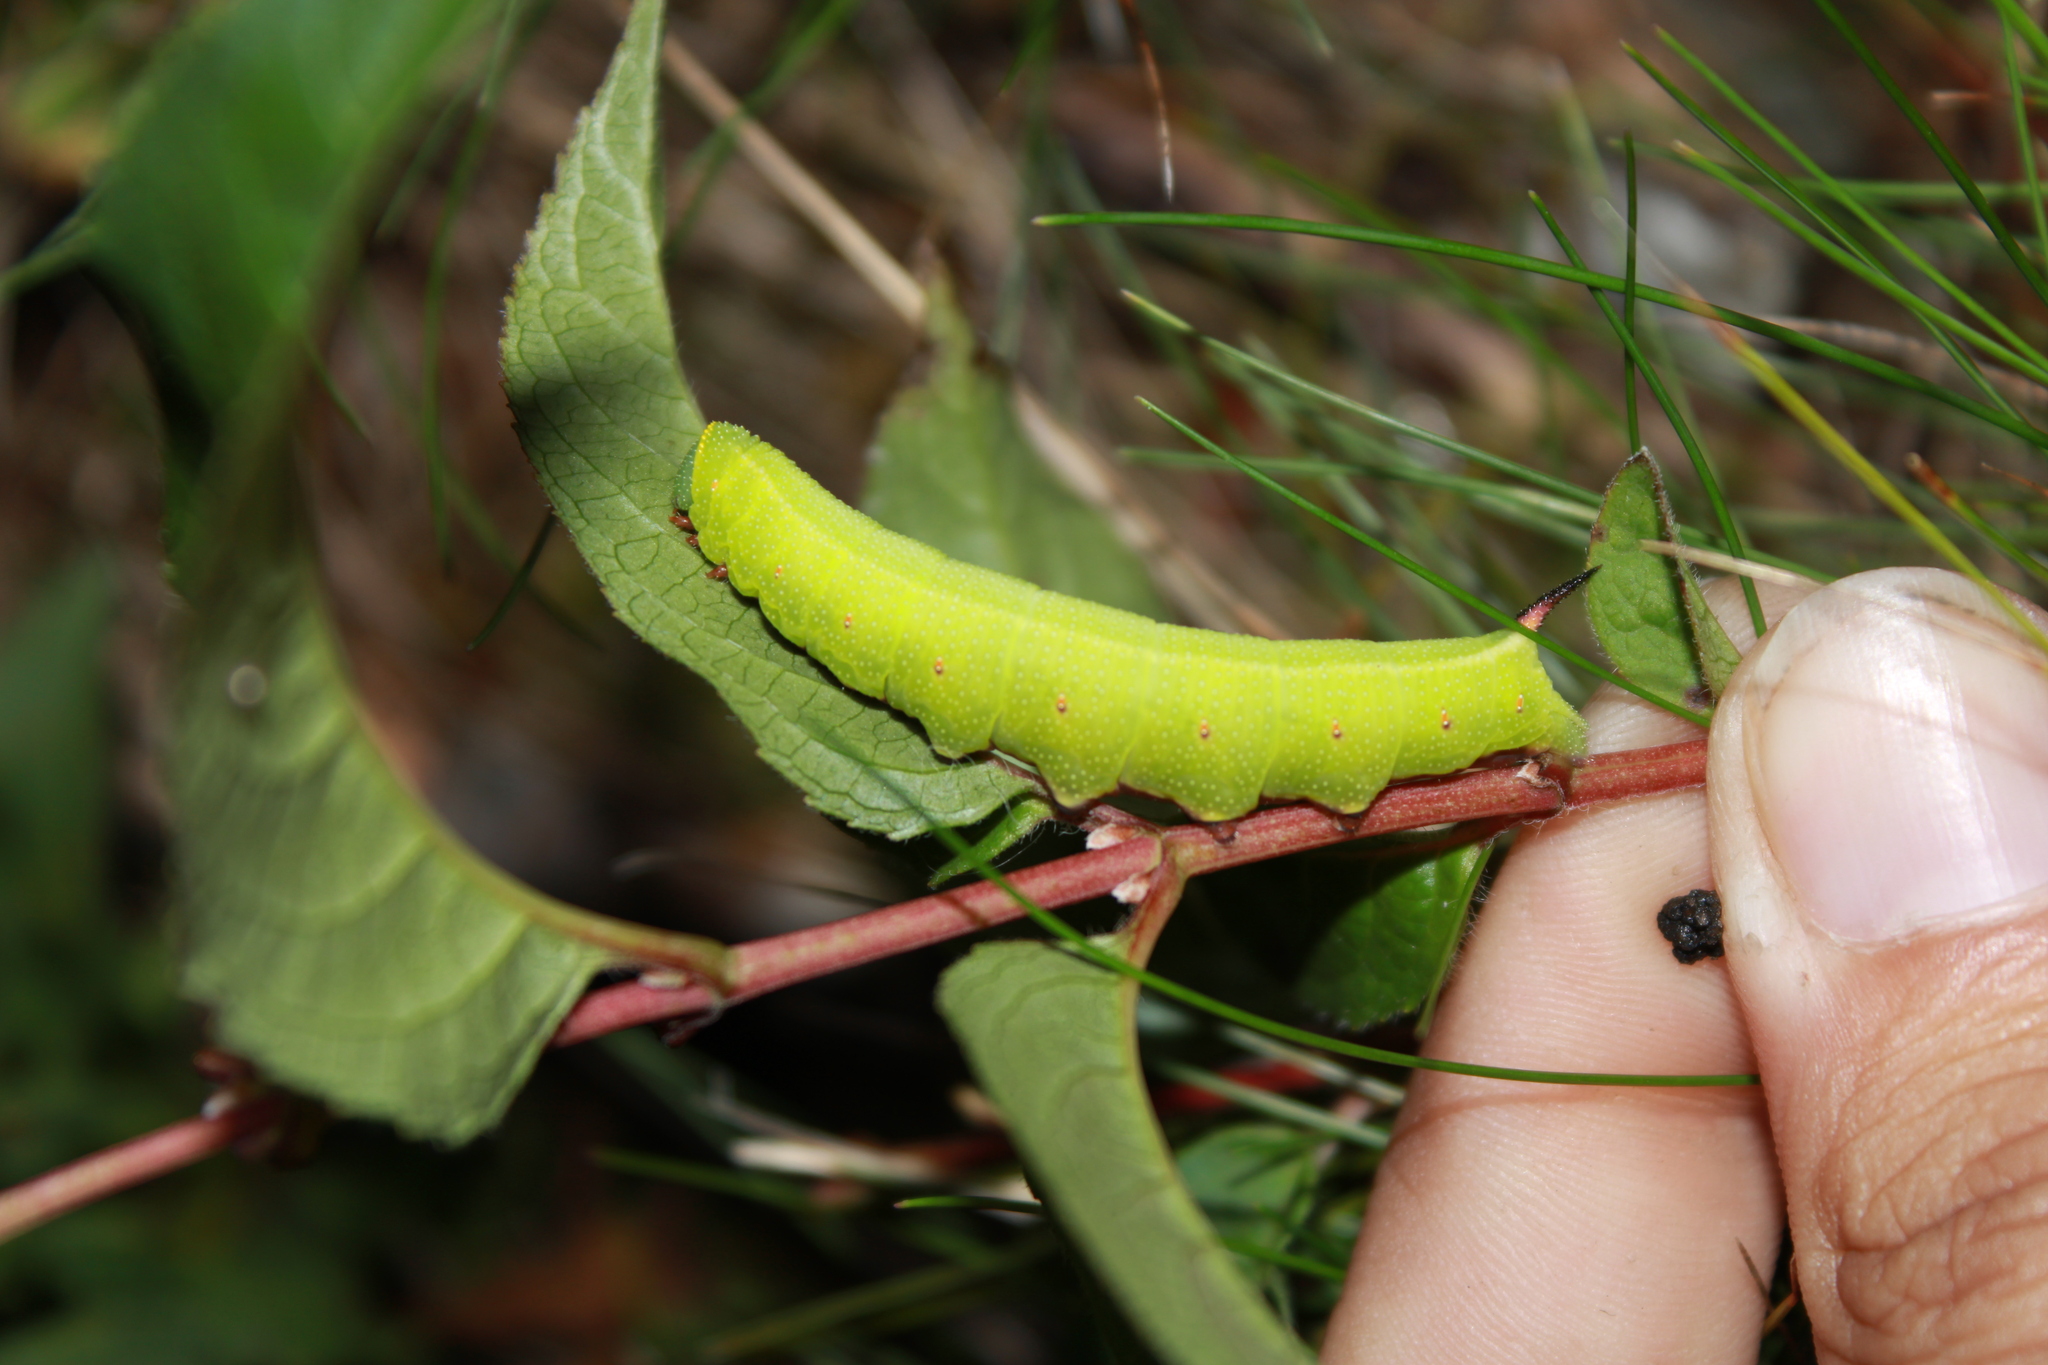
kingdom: Animalia
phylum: Arthropoda
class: Insecta
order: Lepidoptera
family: Sphingidae
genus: Hemaris
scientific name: Hemaris diffinis
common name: Bumblebee moth
